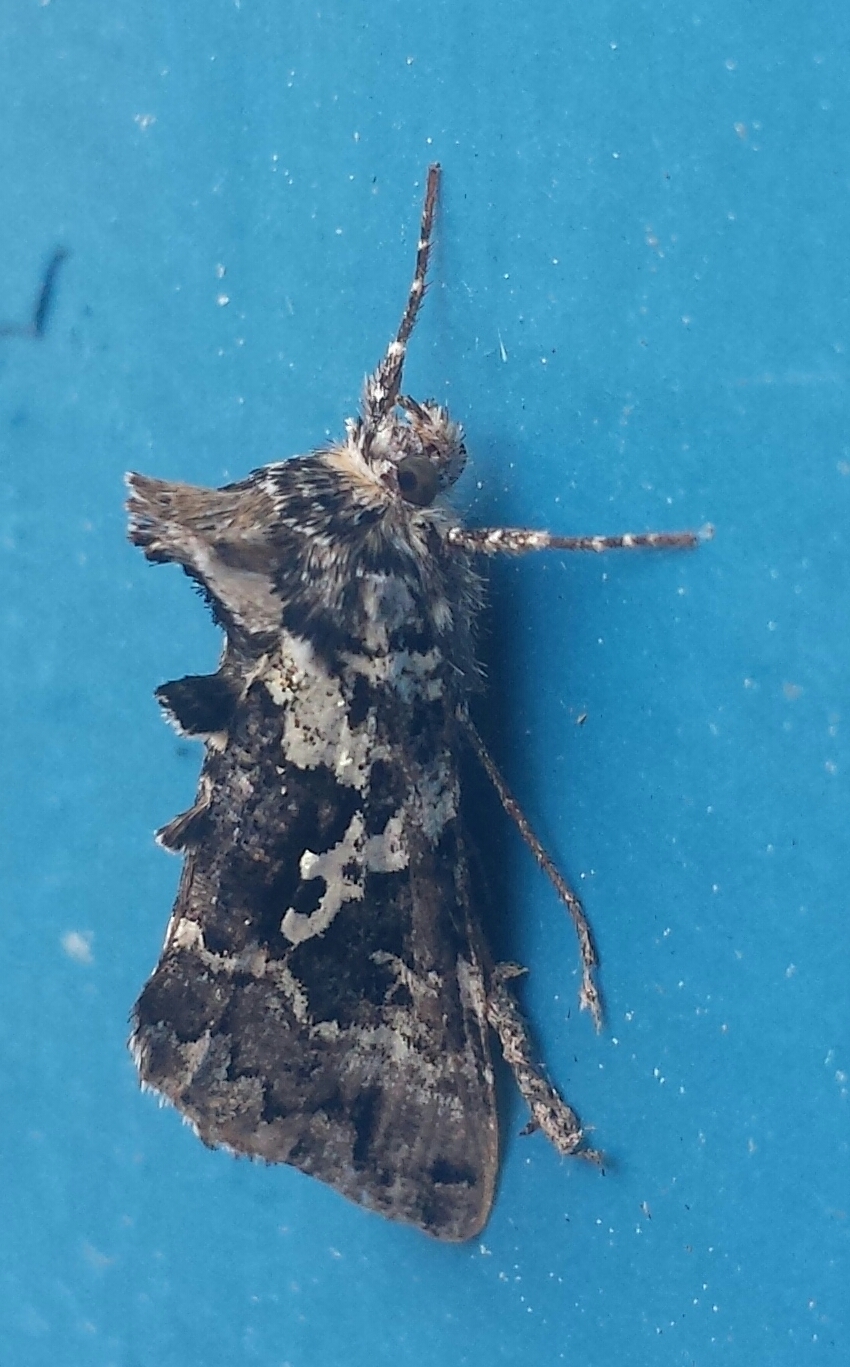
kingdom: Animalia
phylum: Arthropoda
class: Insecta
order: Lepidoptera
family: Noctuidae
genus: Syngrapha
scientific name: Syngrapha rectangula
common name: Angulated cutworm
